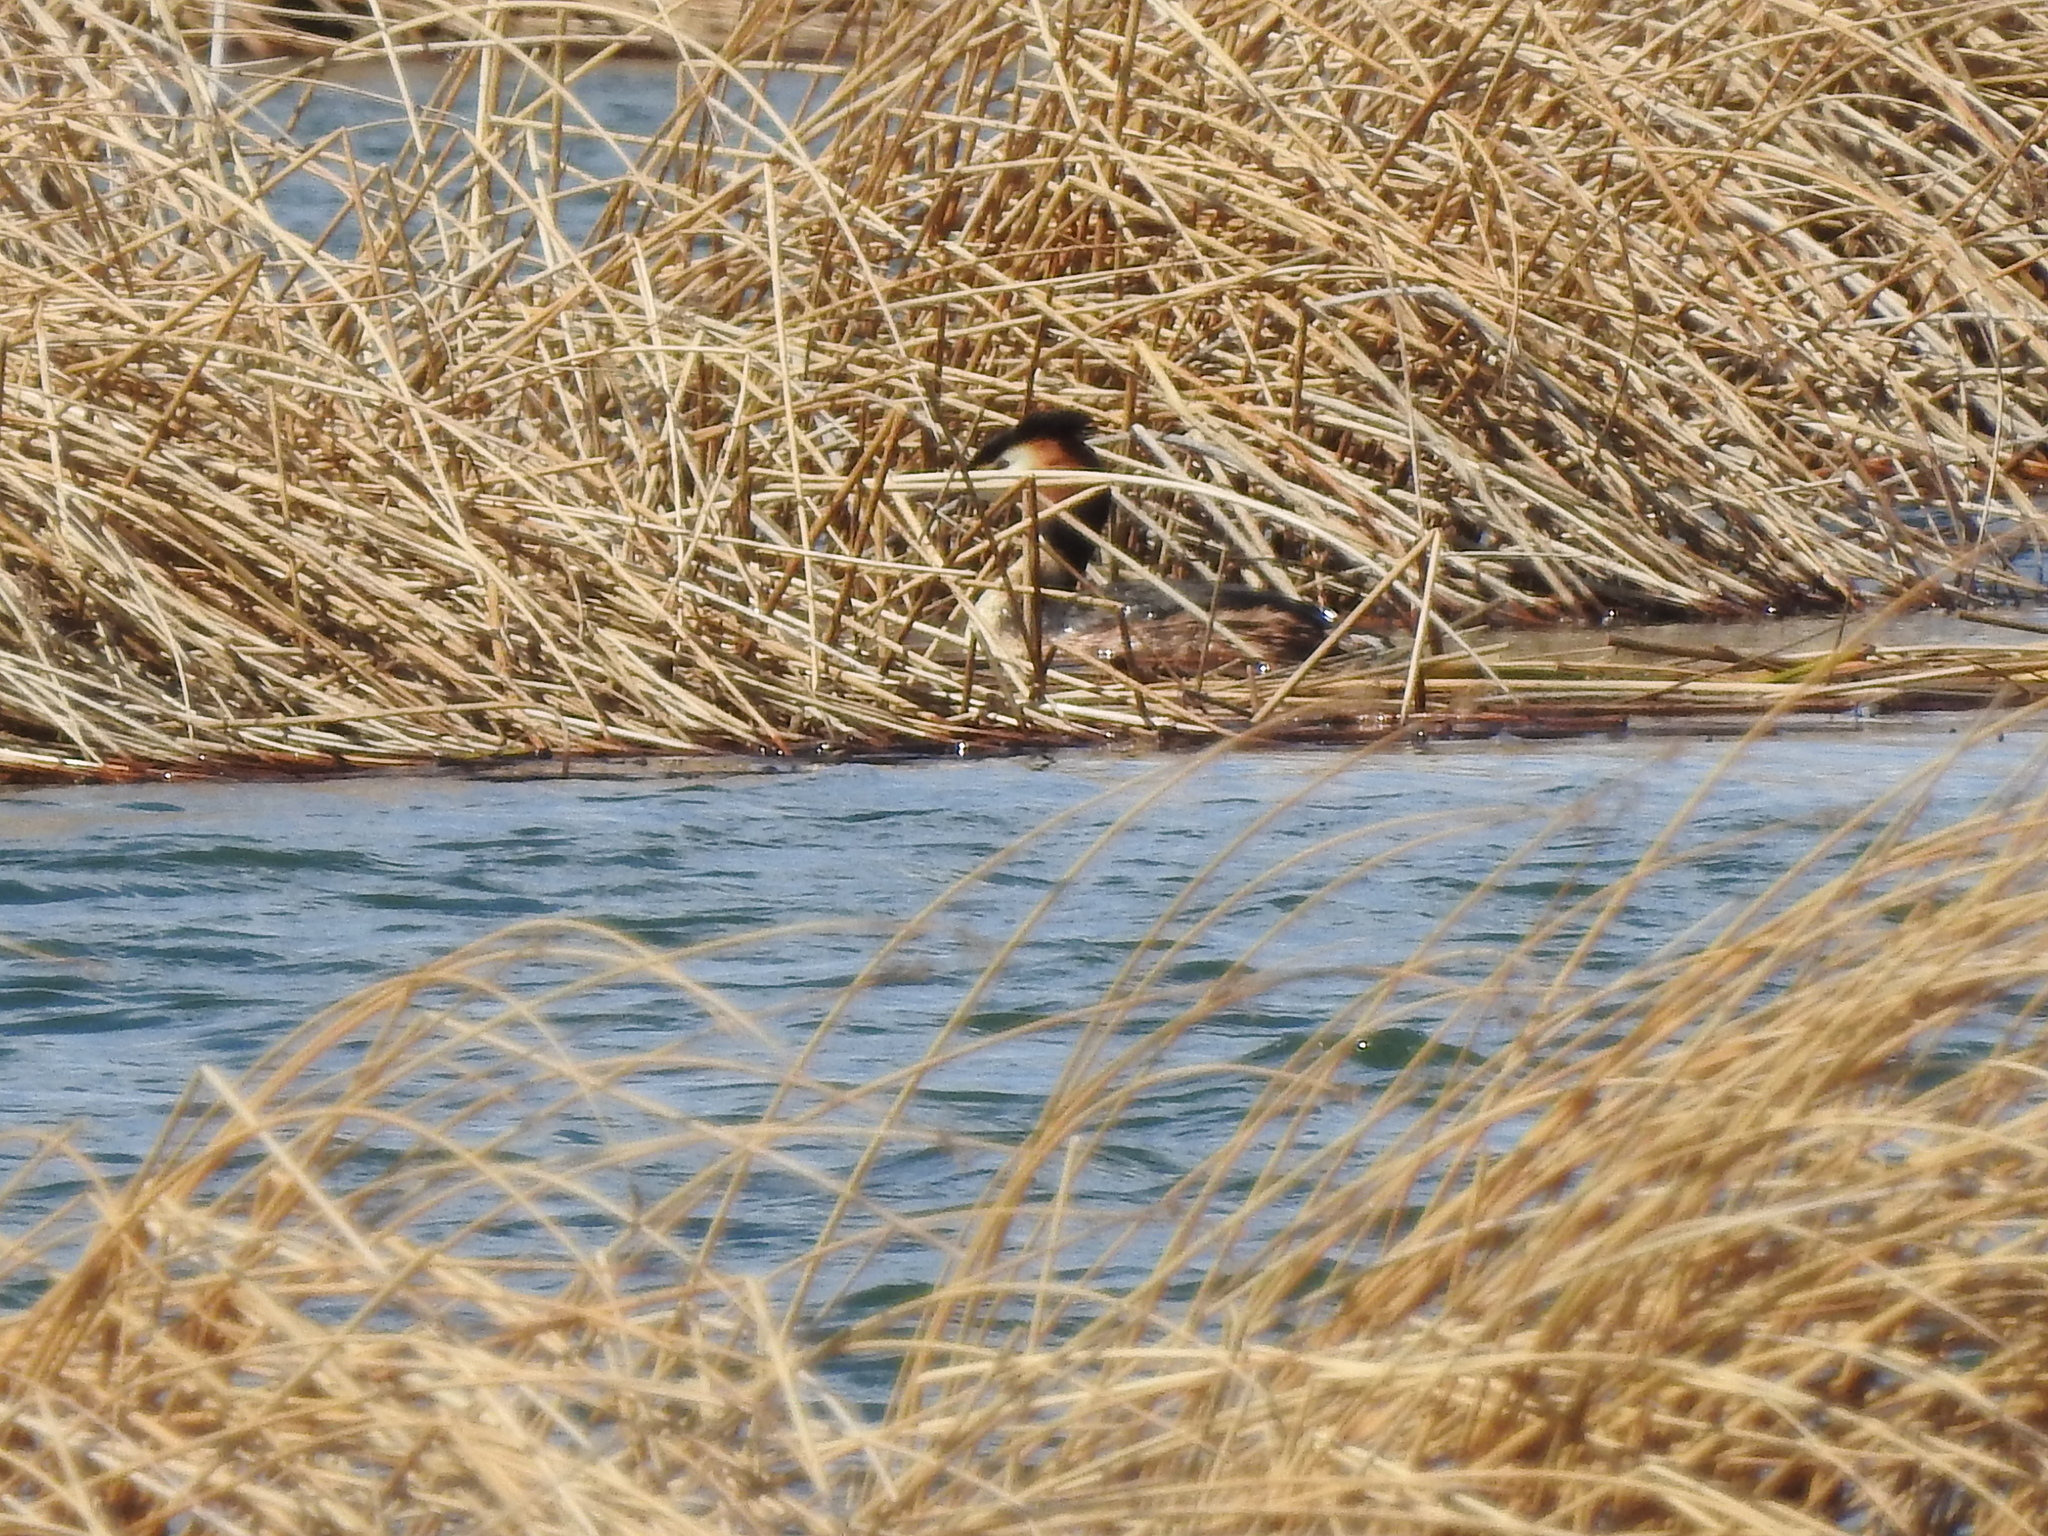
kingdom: Animalia
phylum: Chordata
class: Aves
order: Podicipediformes
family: Podicipedidae
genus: Podiceps
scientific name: Podiceps cristatus
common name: Great crested grebe
